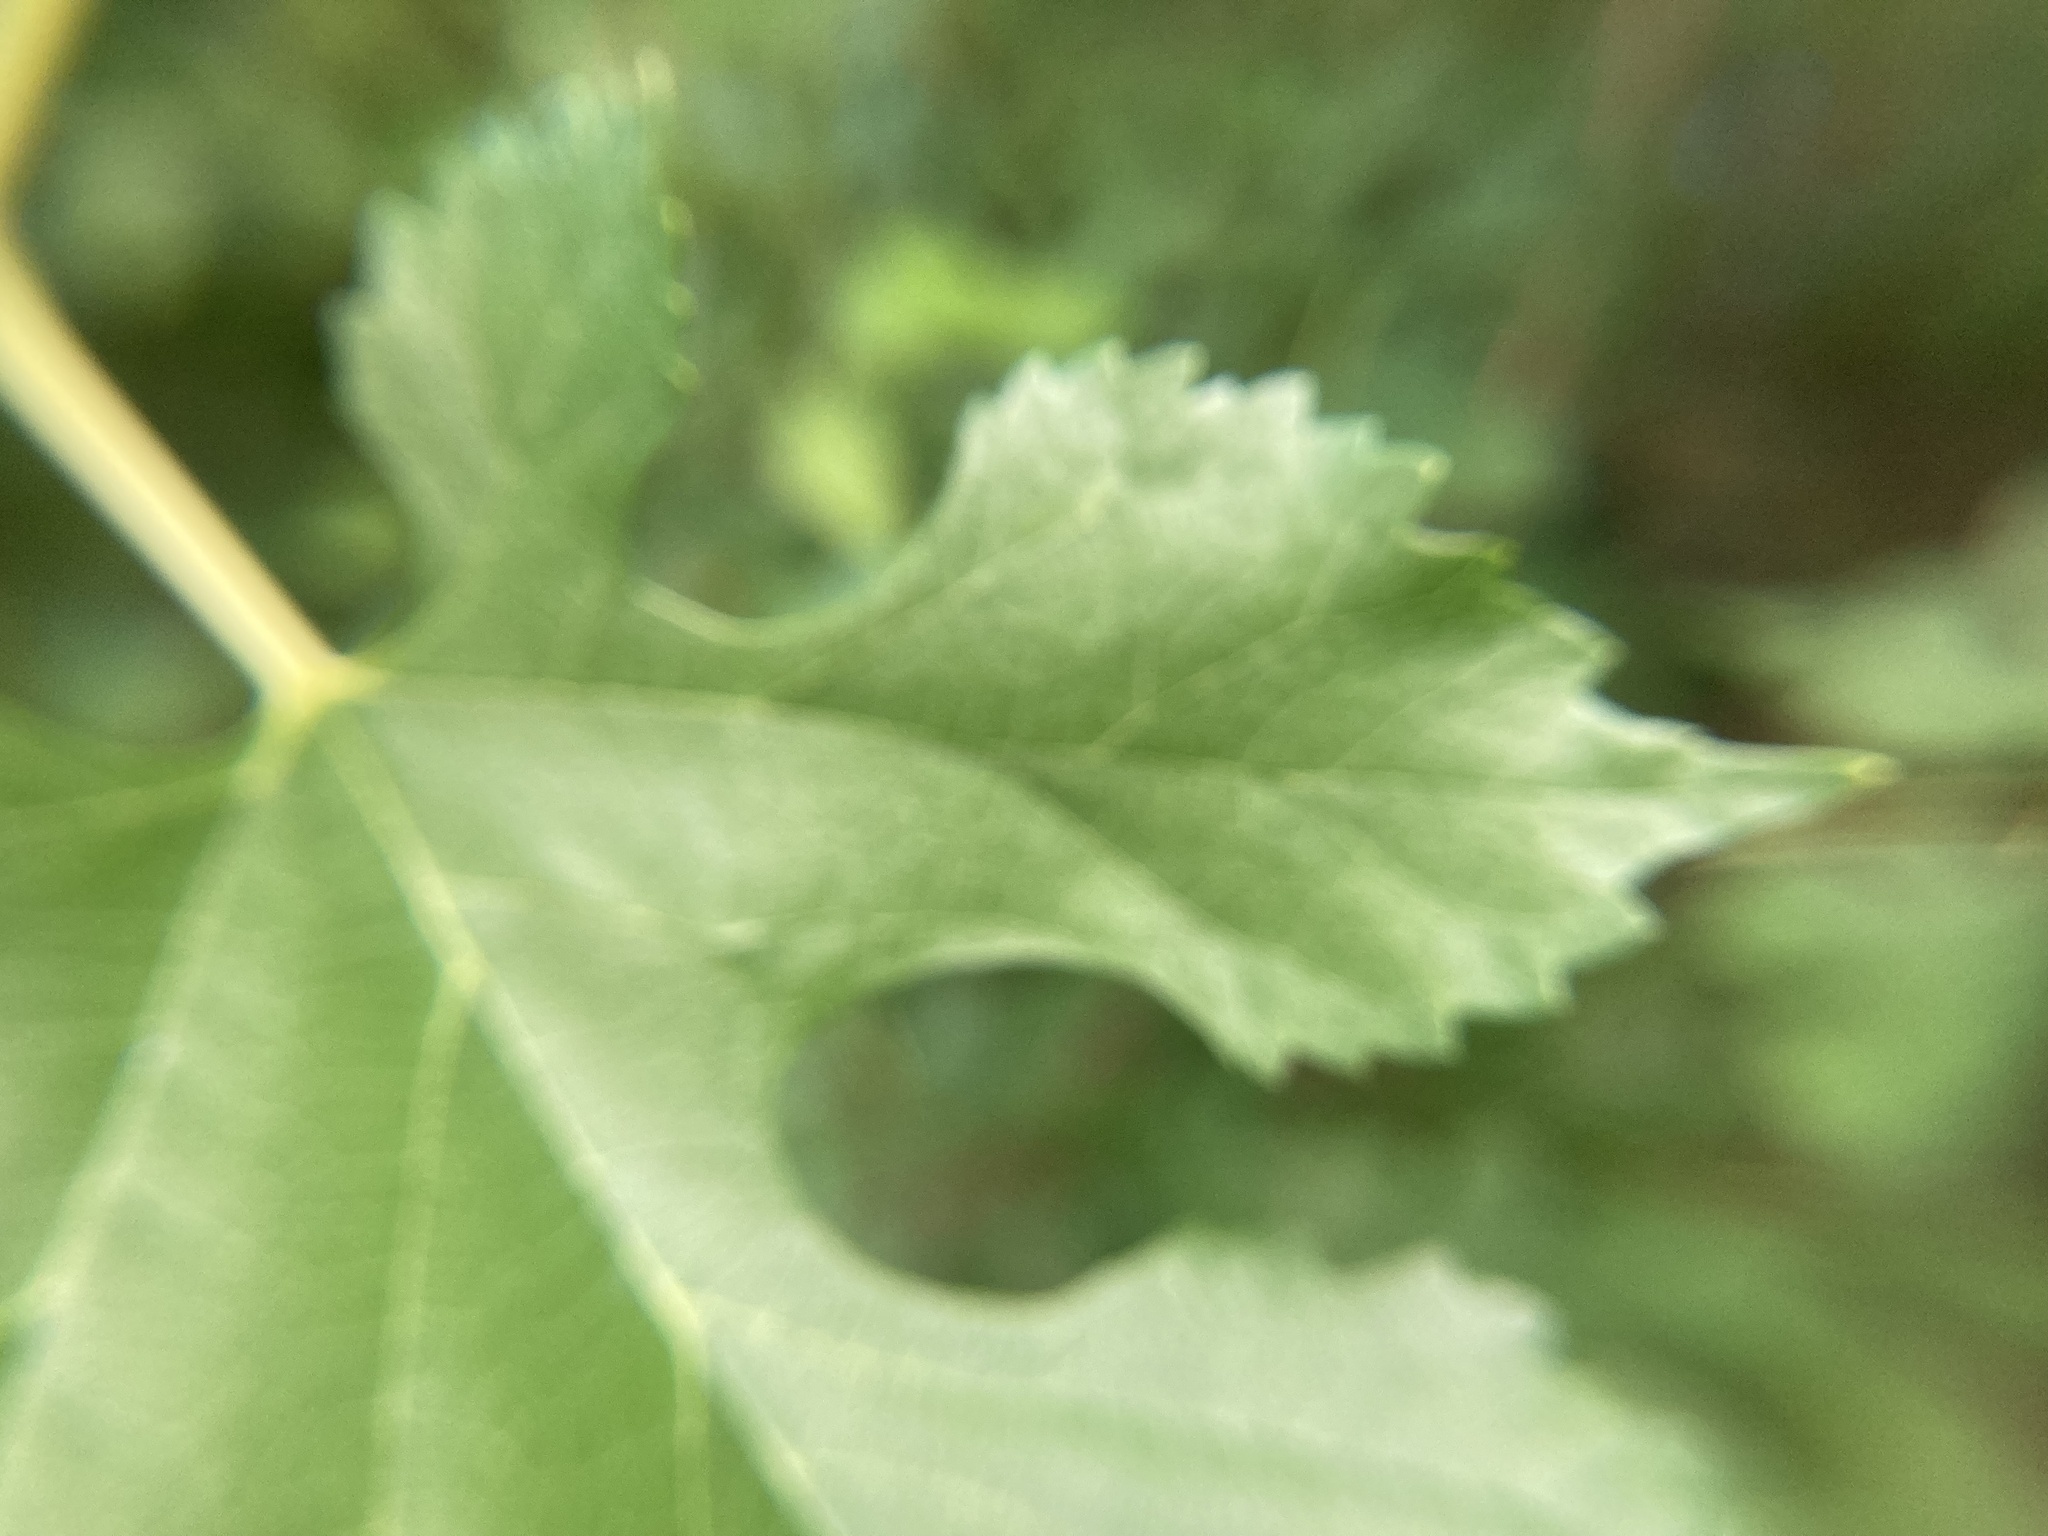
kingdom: Plantae
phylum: Tracheophyta
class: Magnoliopsida
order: Rosales
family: Moraceae
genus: Morus
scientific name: Morus alba
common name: White mulberry
